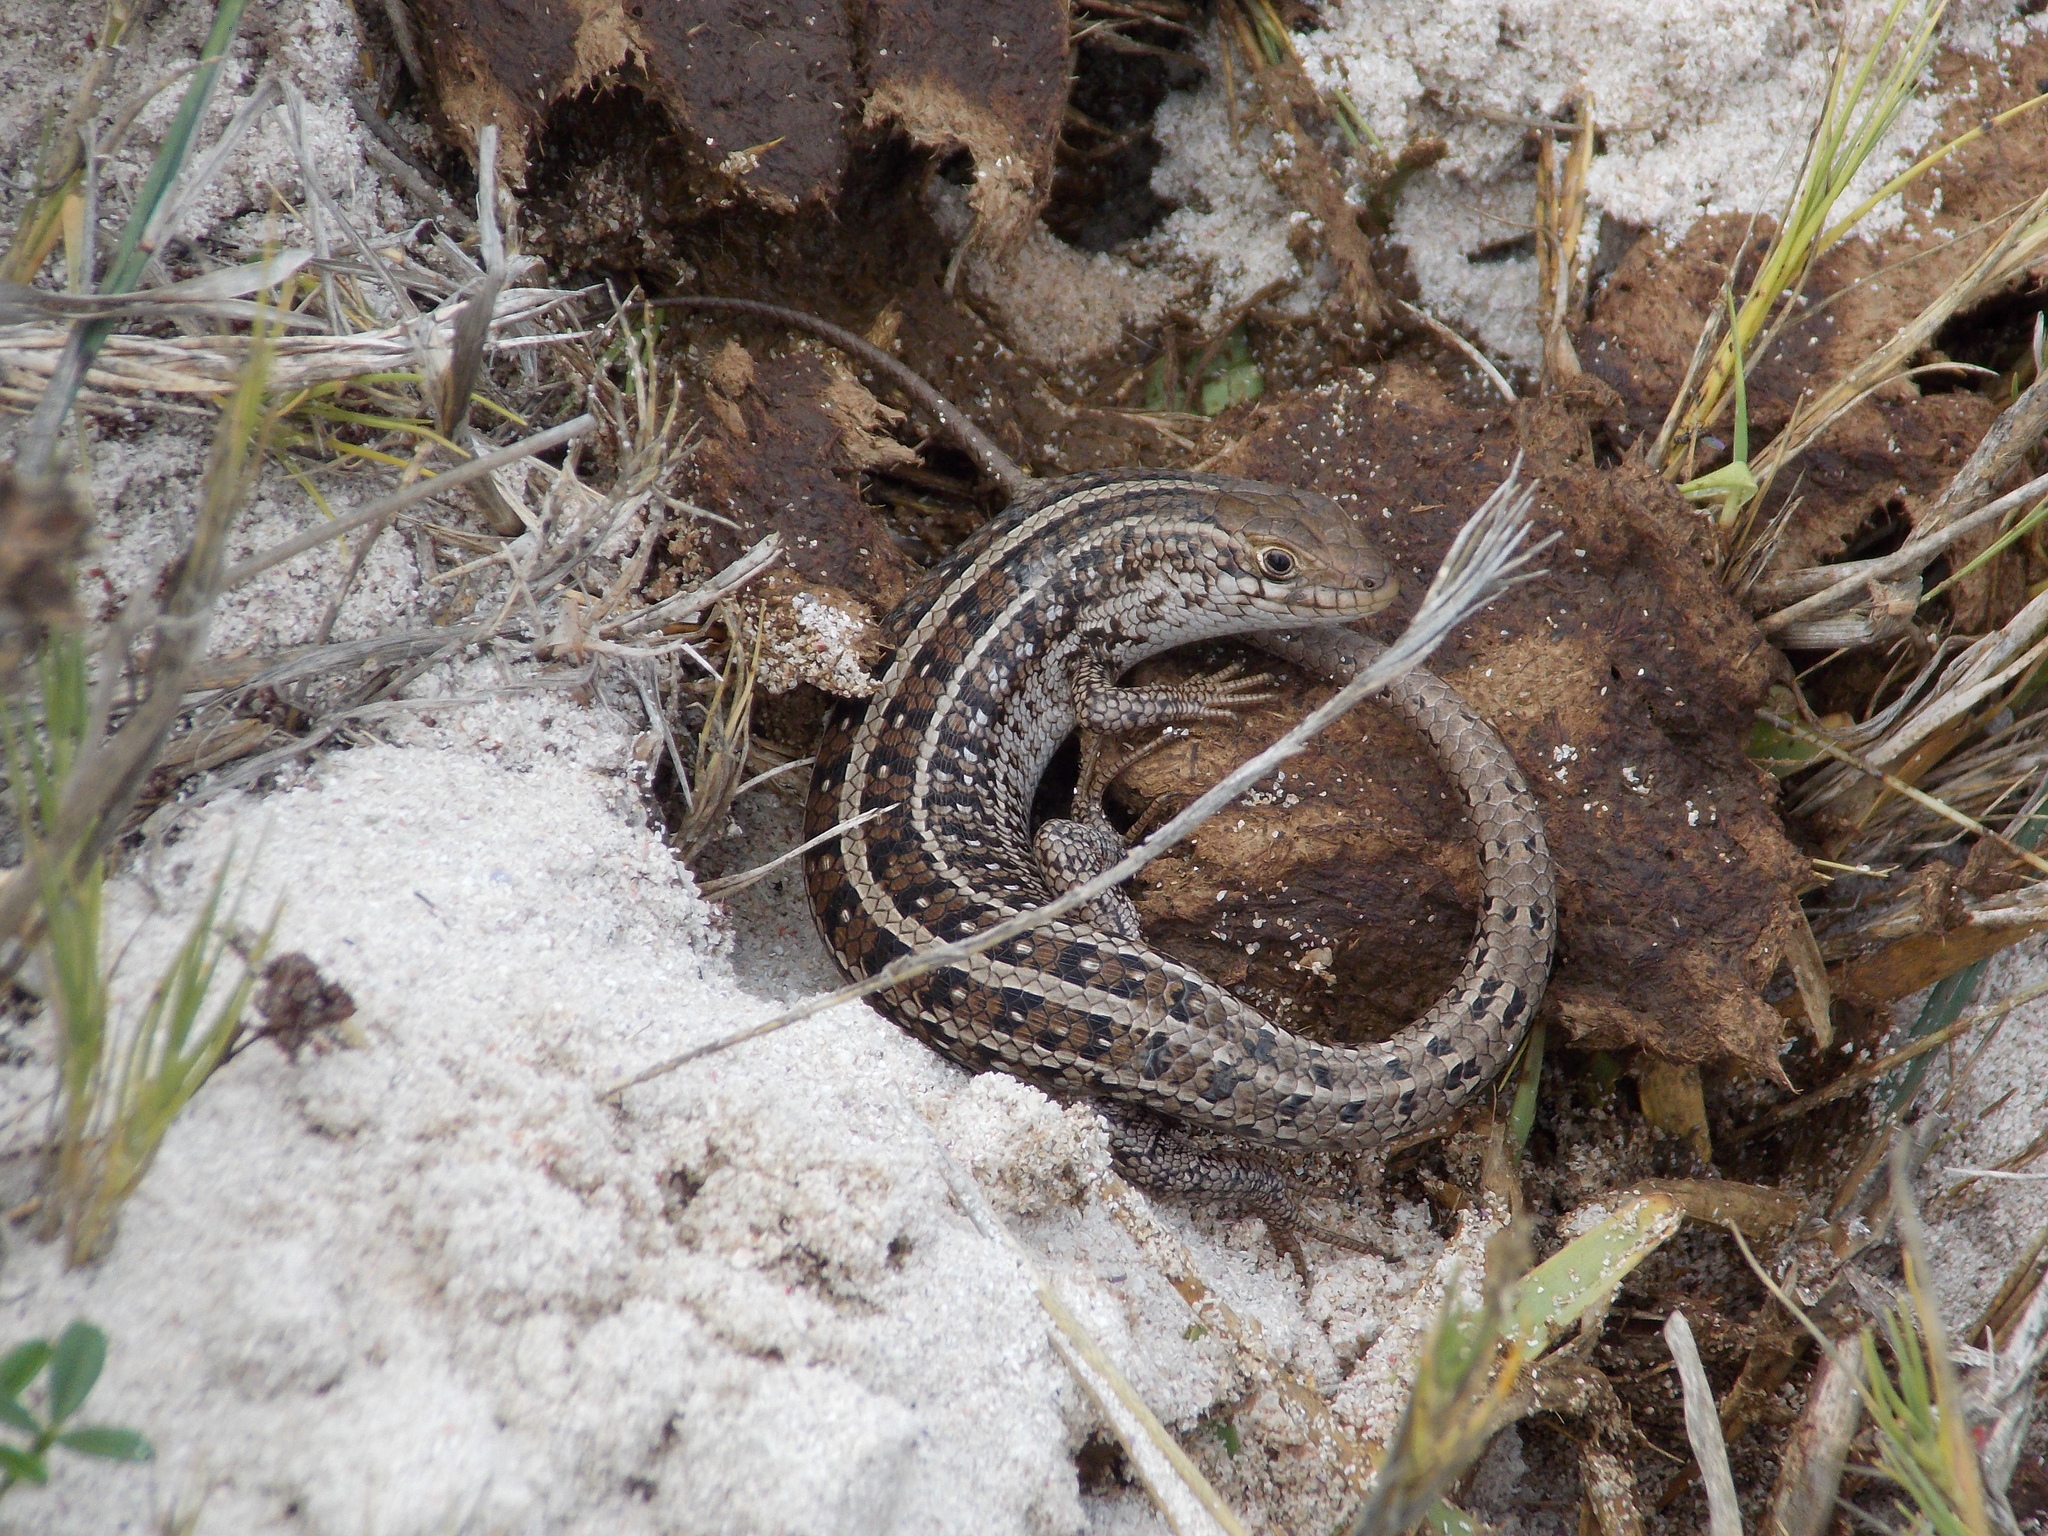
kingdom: Animalia
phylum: Chordata
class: Squamata
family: Scincidae
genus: Trachylepis
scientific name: Trachylepis capensis
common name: Cape skink
